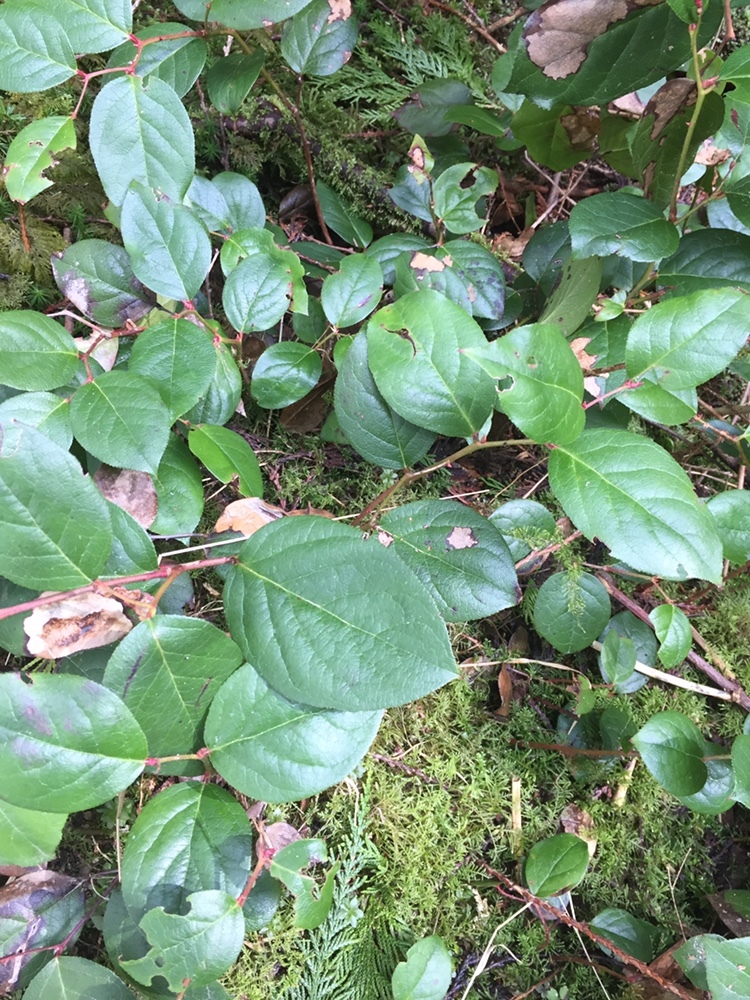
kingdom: Plantae
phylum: Tracheophyta
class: Magnoliopsida
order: Ericales
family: Ericaceae
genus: Gaultheria
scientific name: Gaultheria shallon
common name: Shallon
